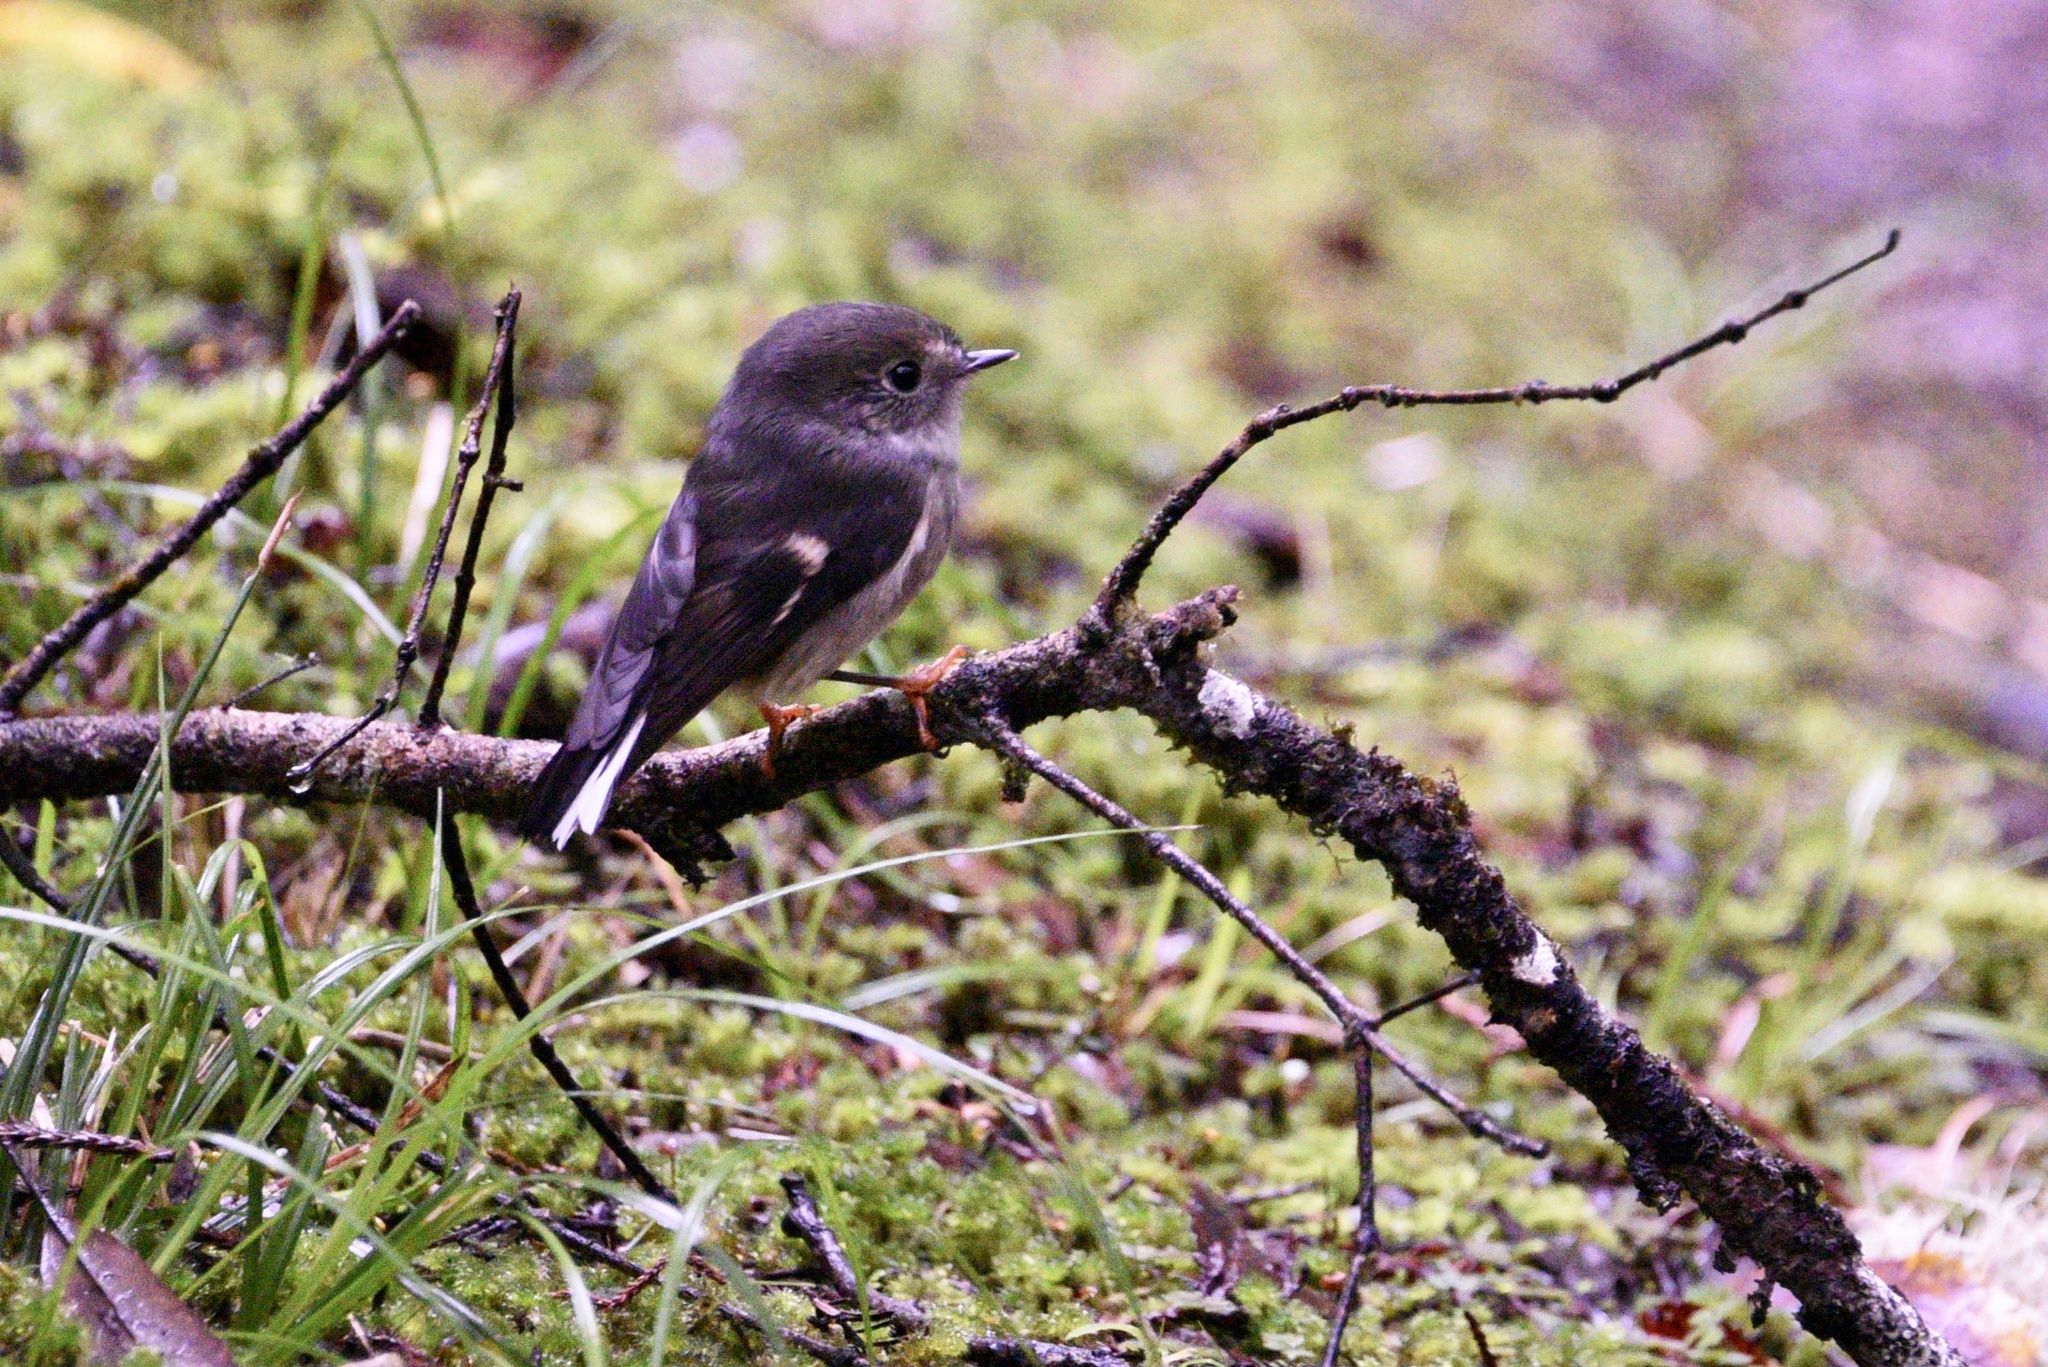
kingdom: Animalia
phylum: Chordata
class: Aves
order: Passeriformes
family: Petroicidae
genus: Petroica
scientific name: Petroica macrocephala
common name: Tomtit
